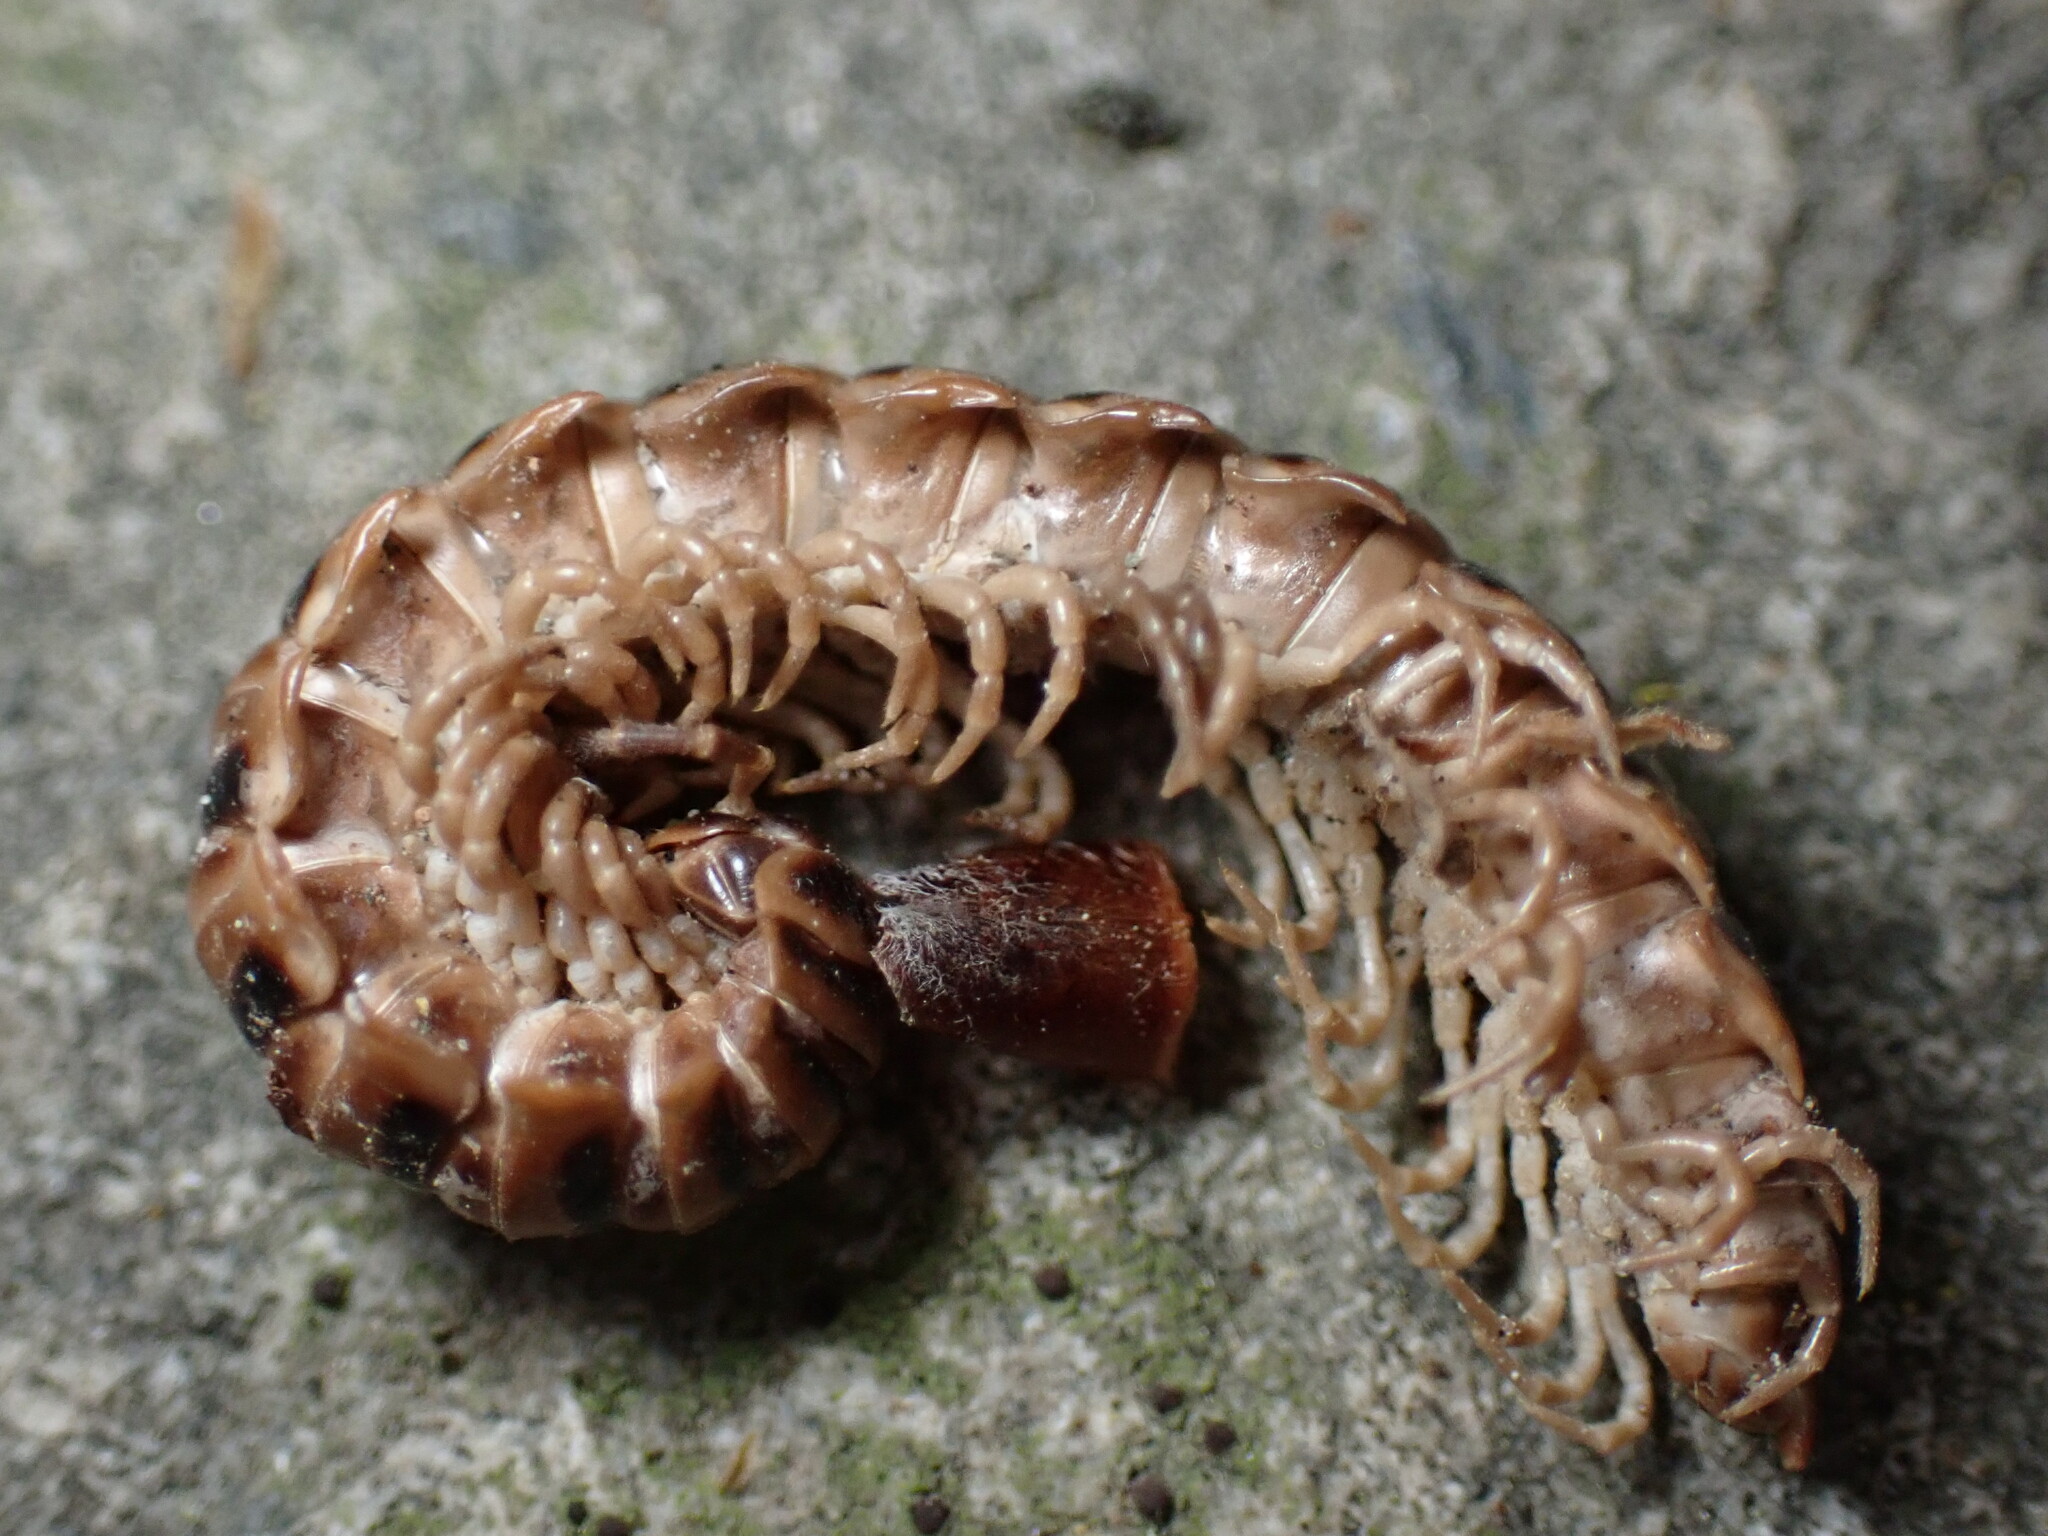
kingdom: Animalia
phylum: Arthropoda
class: Diplopoda
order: Polydesmida
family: Paradoxosomatidae
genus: Chamberlinius
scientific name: Chamberlinius hualienensis
